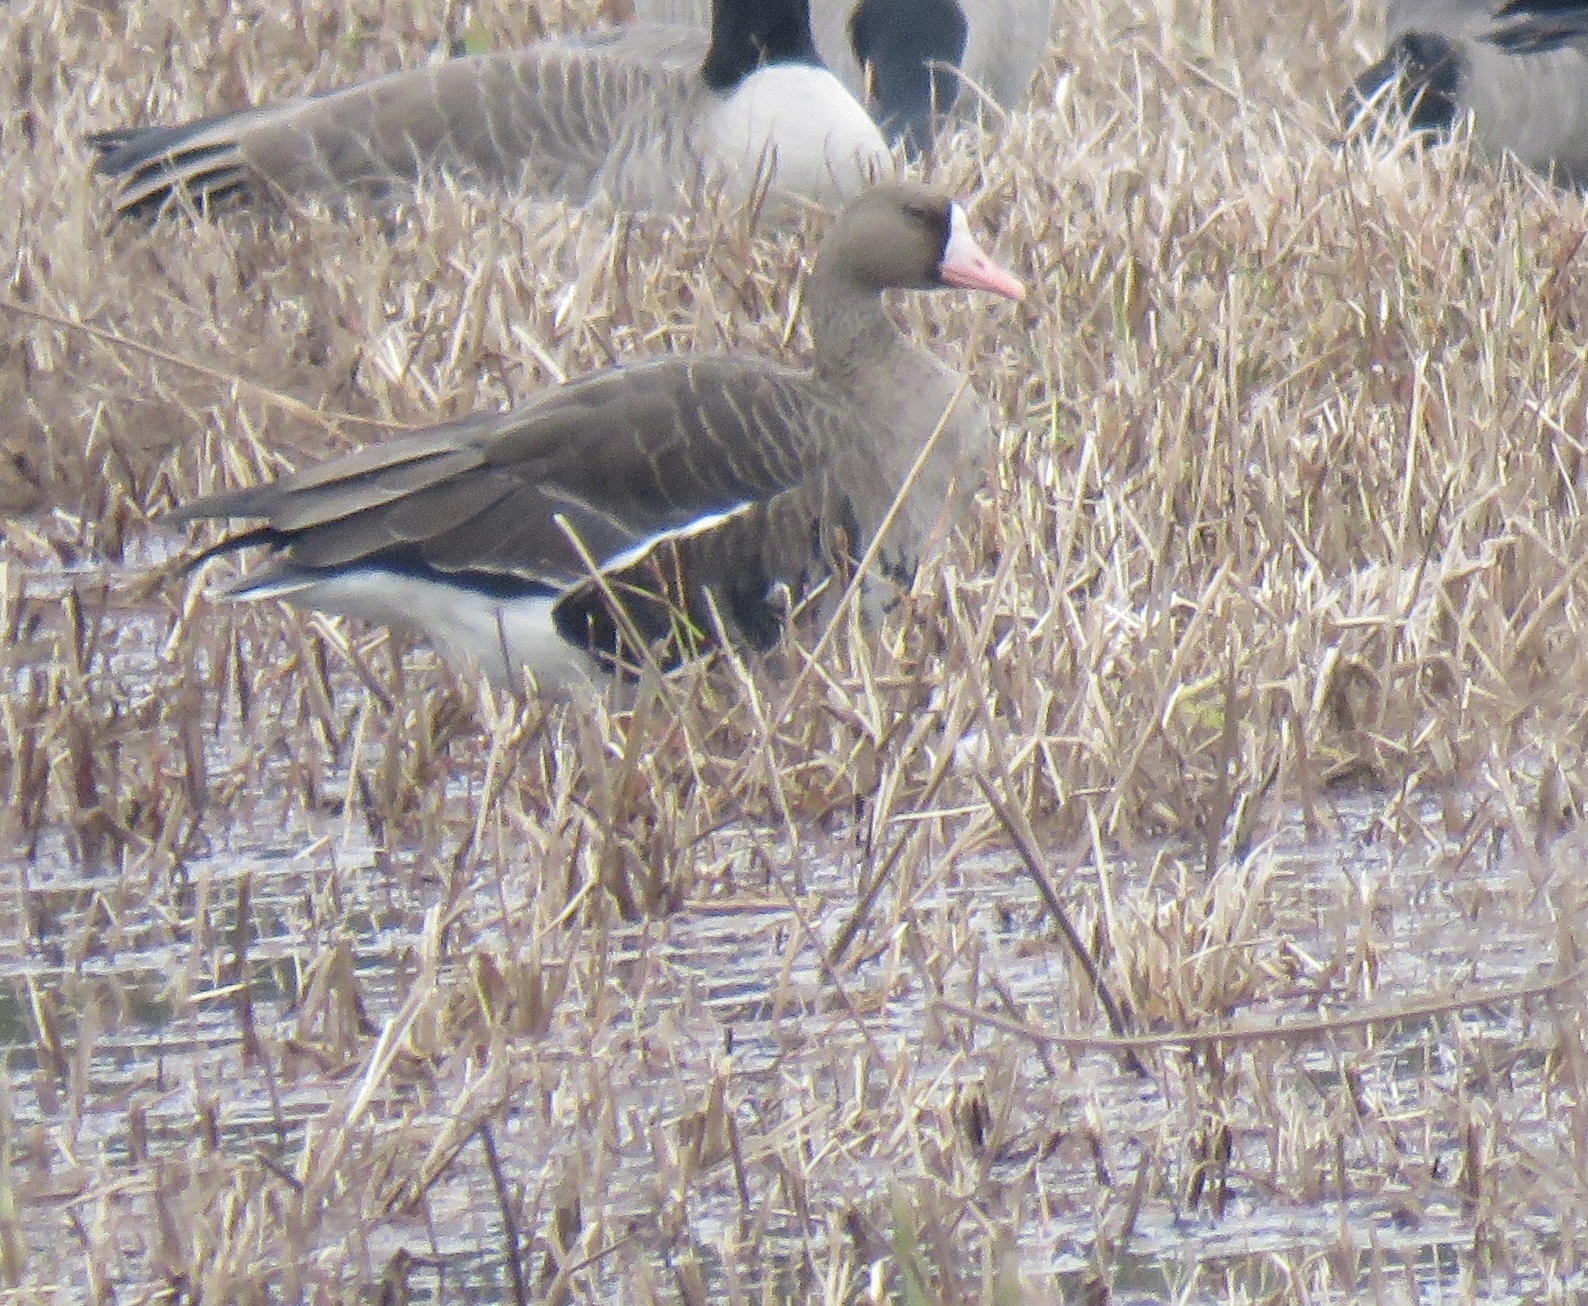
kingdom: Animalia
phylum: Chordata
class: Aves
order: Anseriformes
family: Anatidae
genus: Anser
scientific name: Anser albifrons
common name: Greater white-fronted goose
